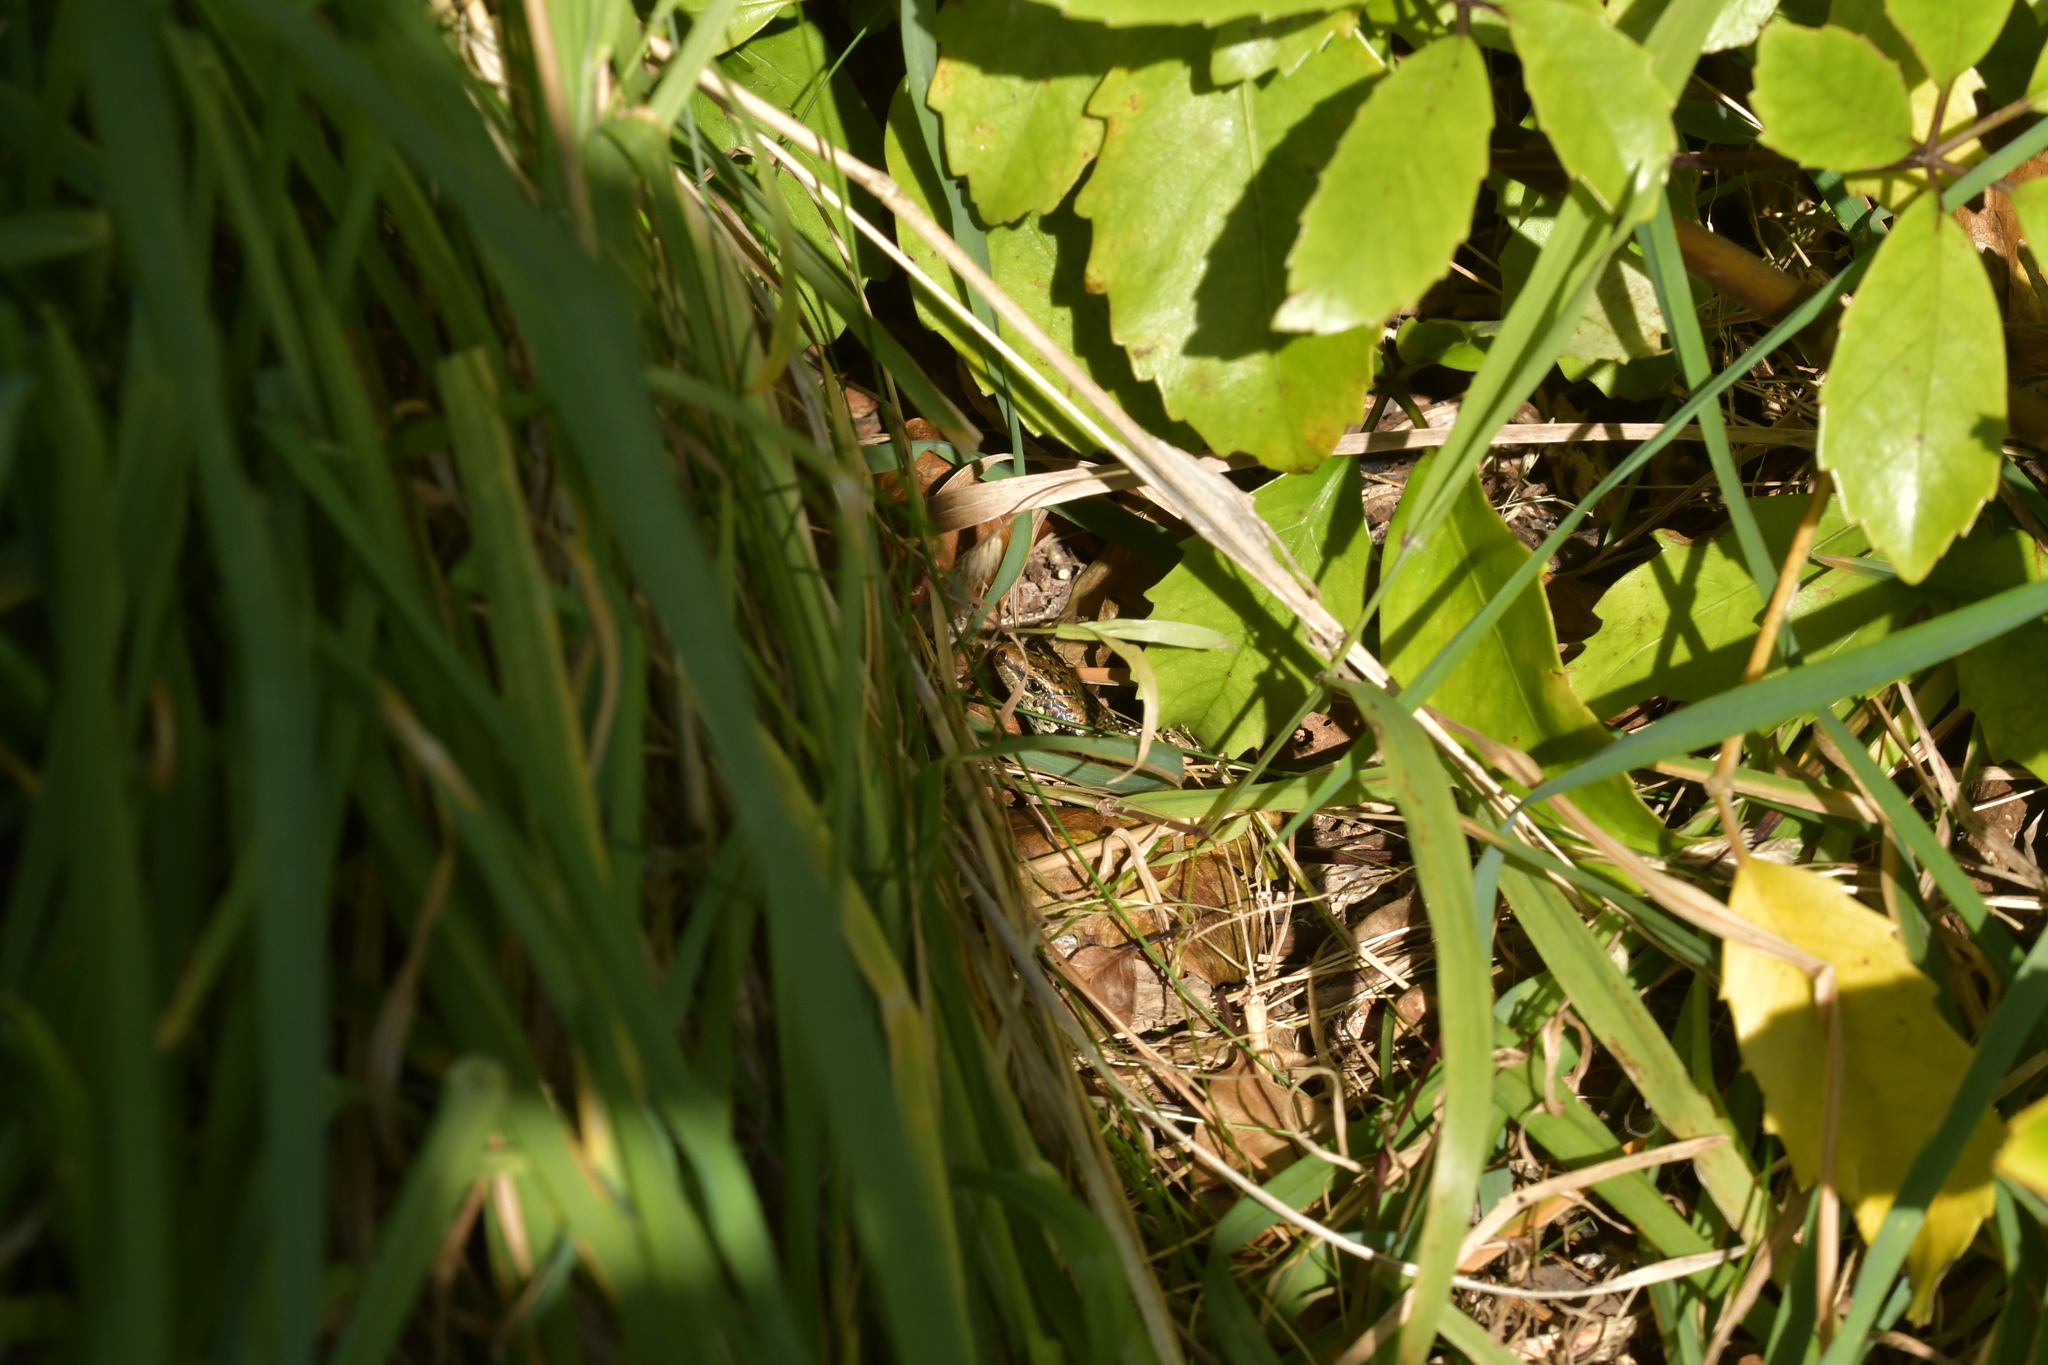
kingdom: Animalia
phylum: Chordata
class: Squamata
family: Scincidae
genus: Oligosoma
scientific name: Oligosoma kokowai
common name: Northern spotted skink
